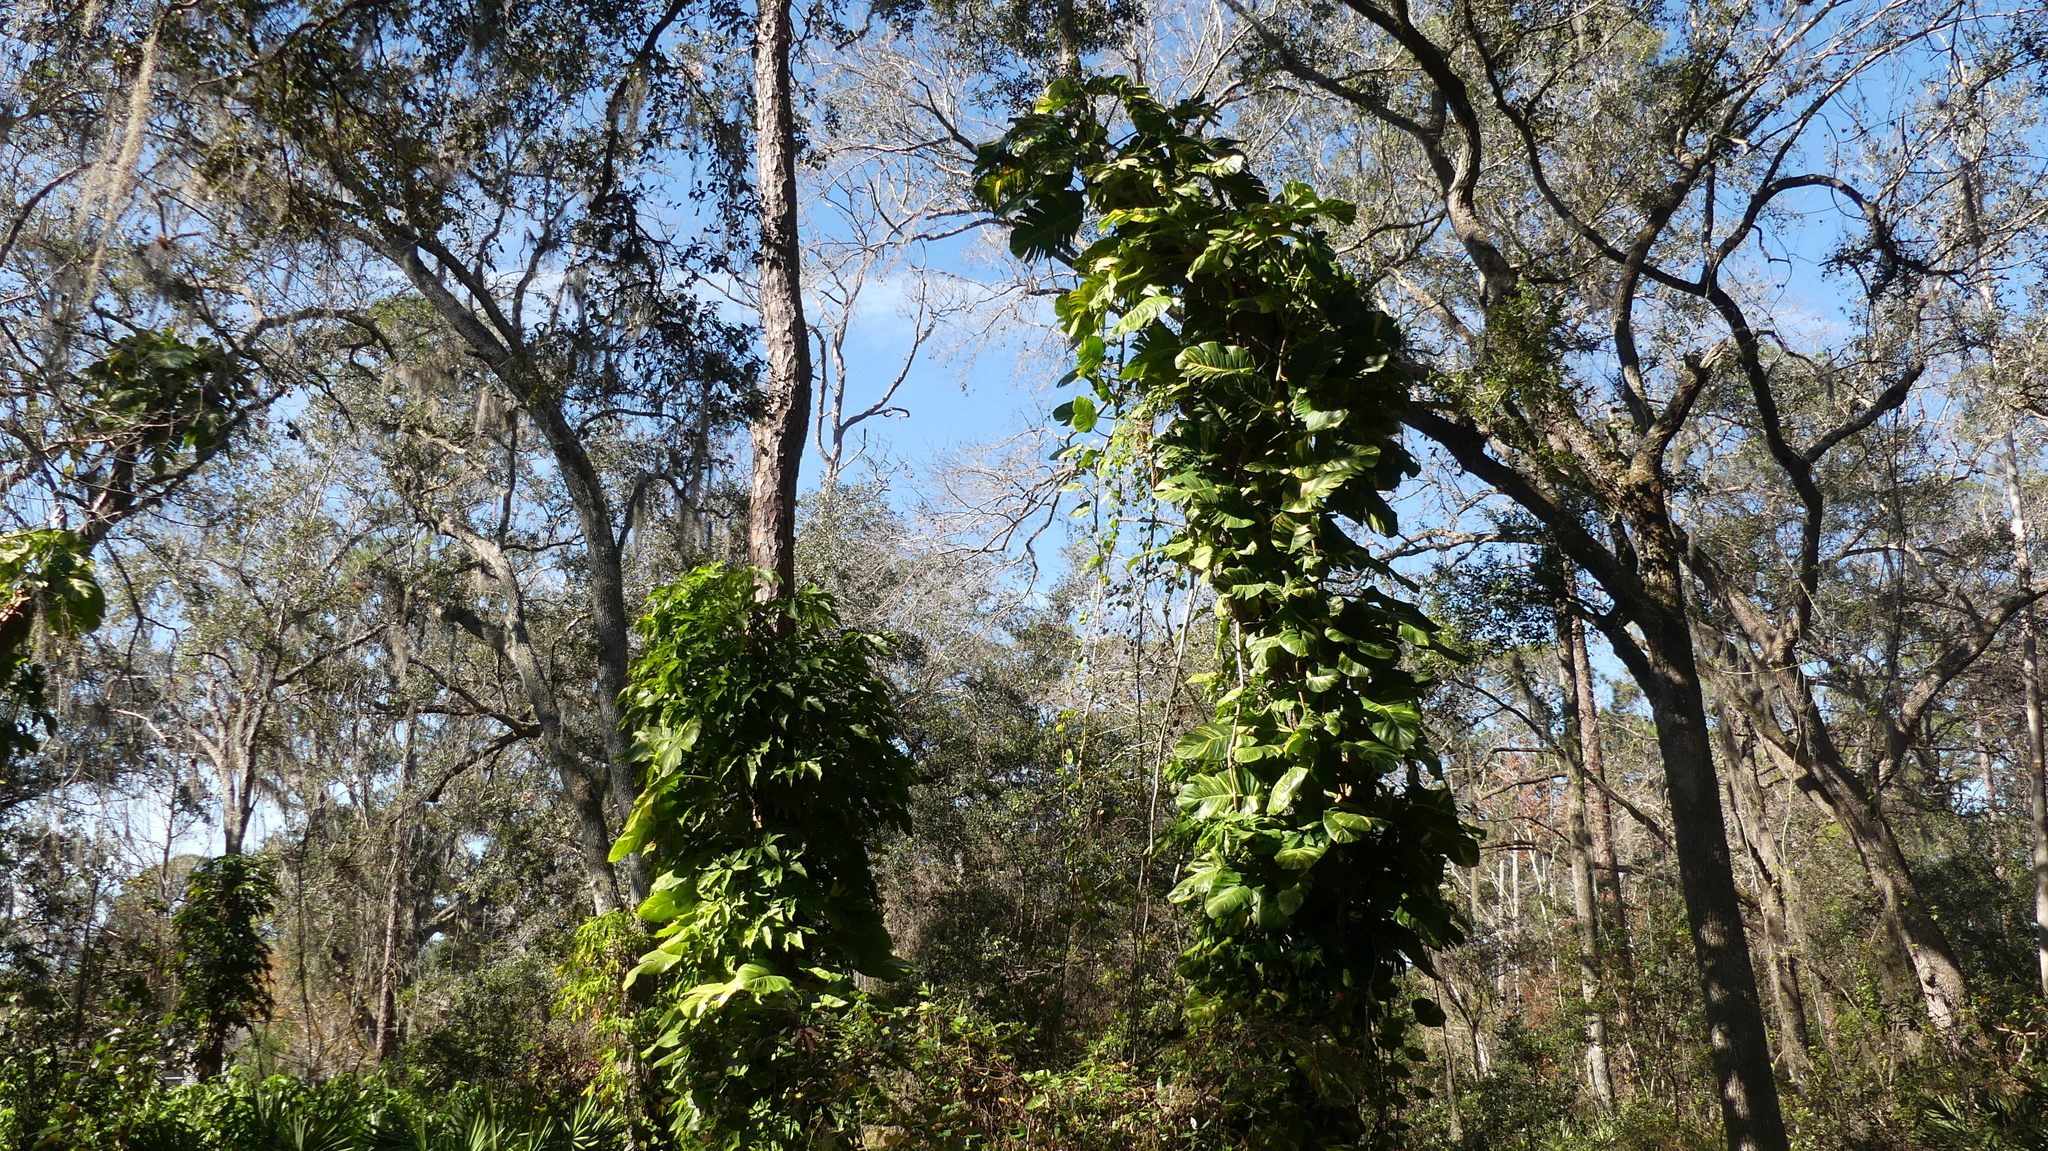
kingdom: Plantae
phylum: Tracheophyta
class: Liliopsida
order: Alismatales
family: Araceae
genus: Epipremnum
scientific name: Epipremnum aureum
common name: Golden hunter's-robe
